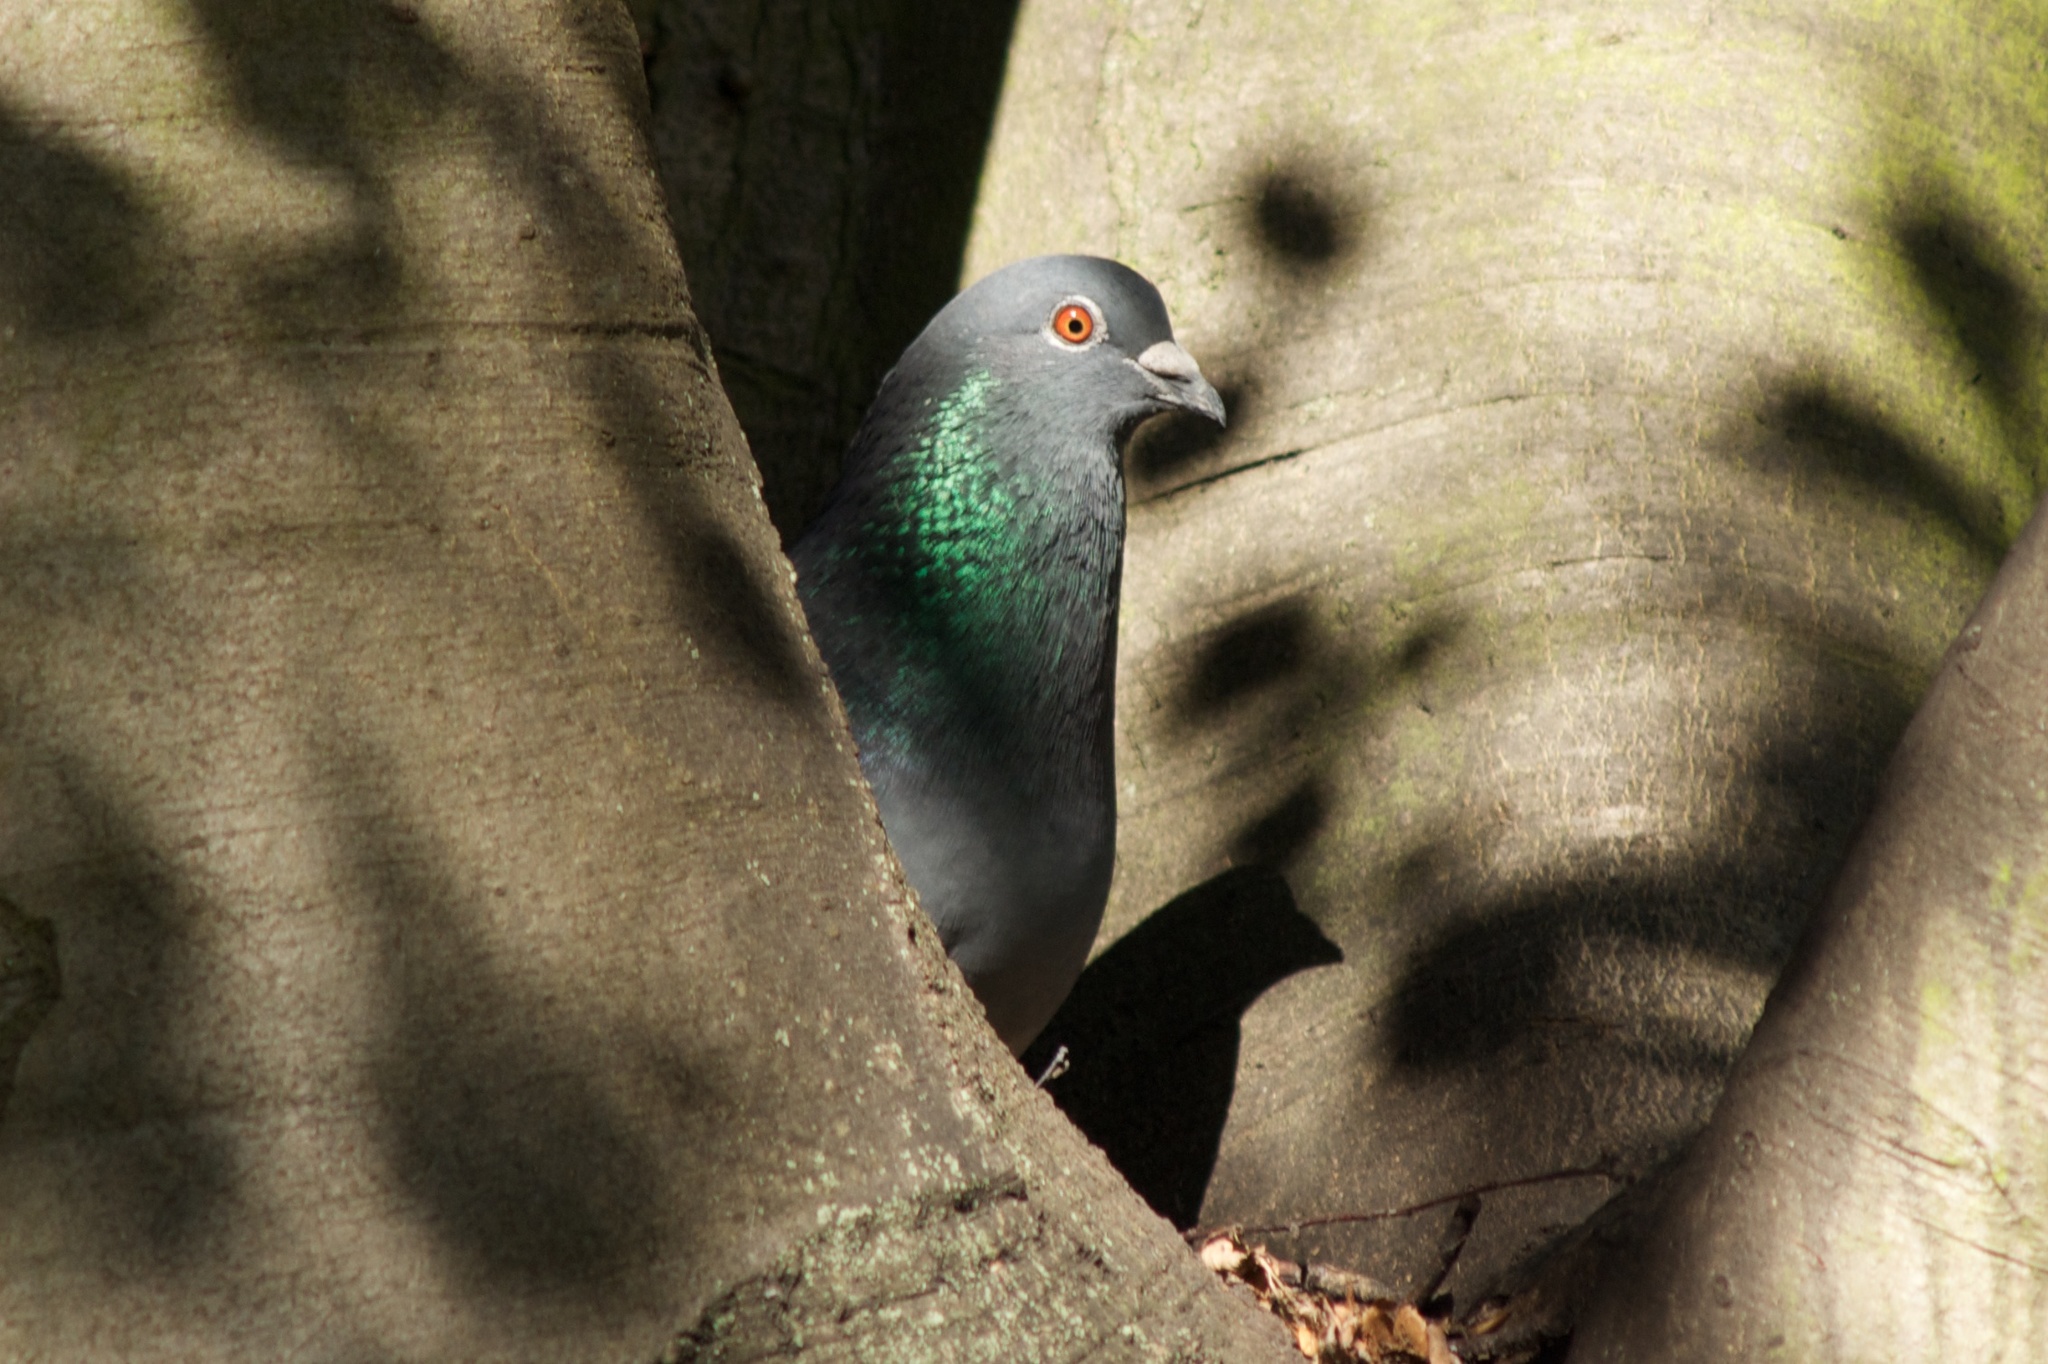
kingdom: Animalia
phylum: Chordata
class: Aves
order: Columbiformes
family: Columbidae
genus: Columba
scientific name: Columba livia
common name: Rock pigeon
